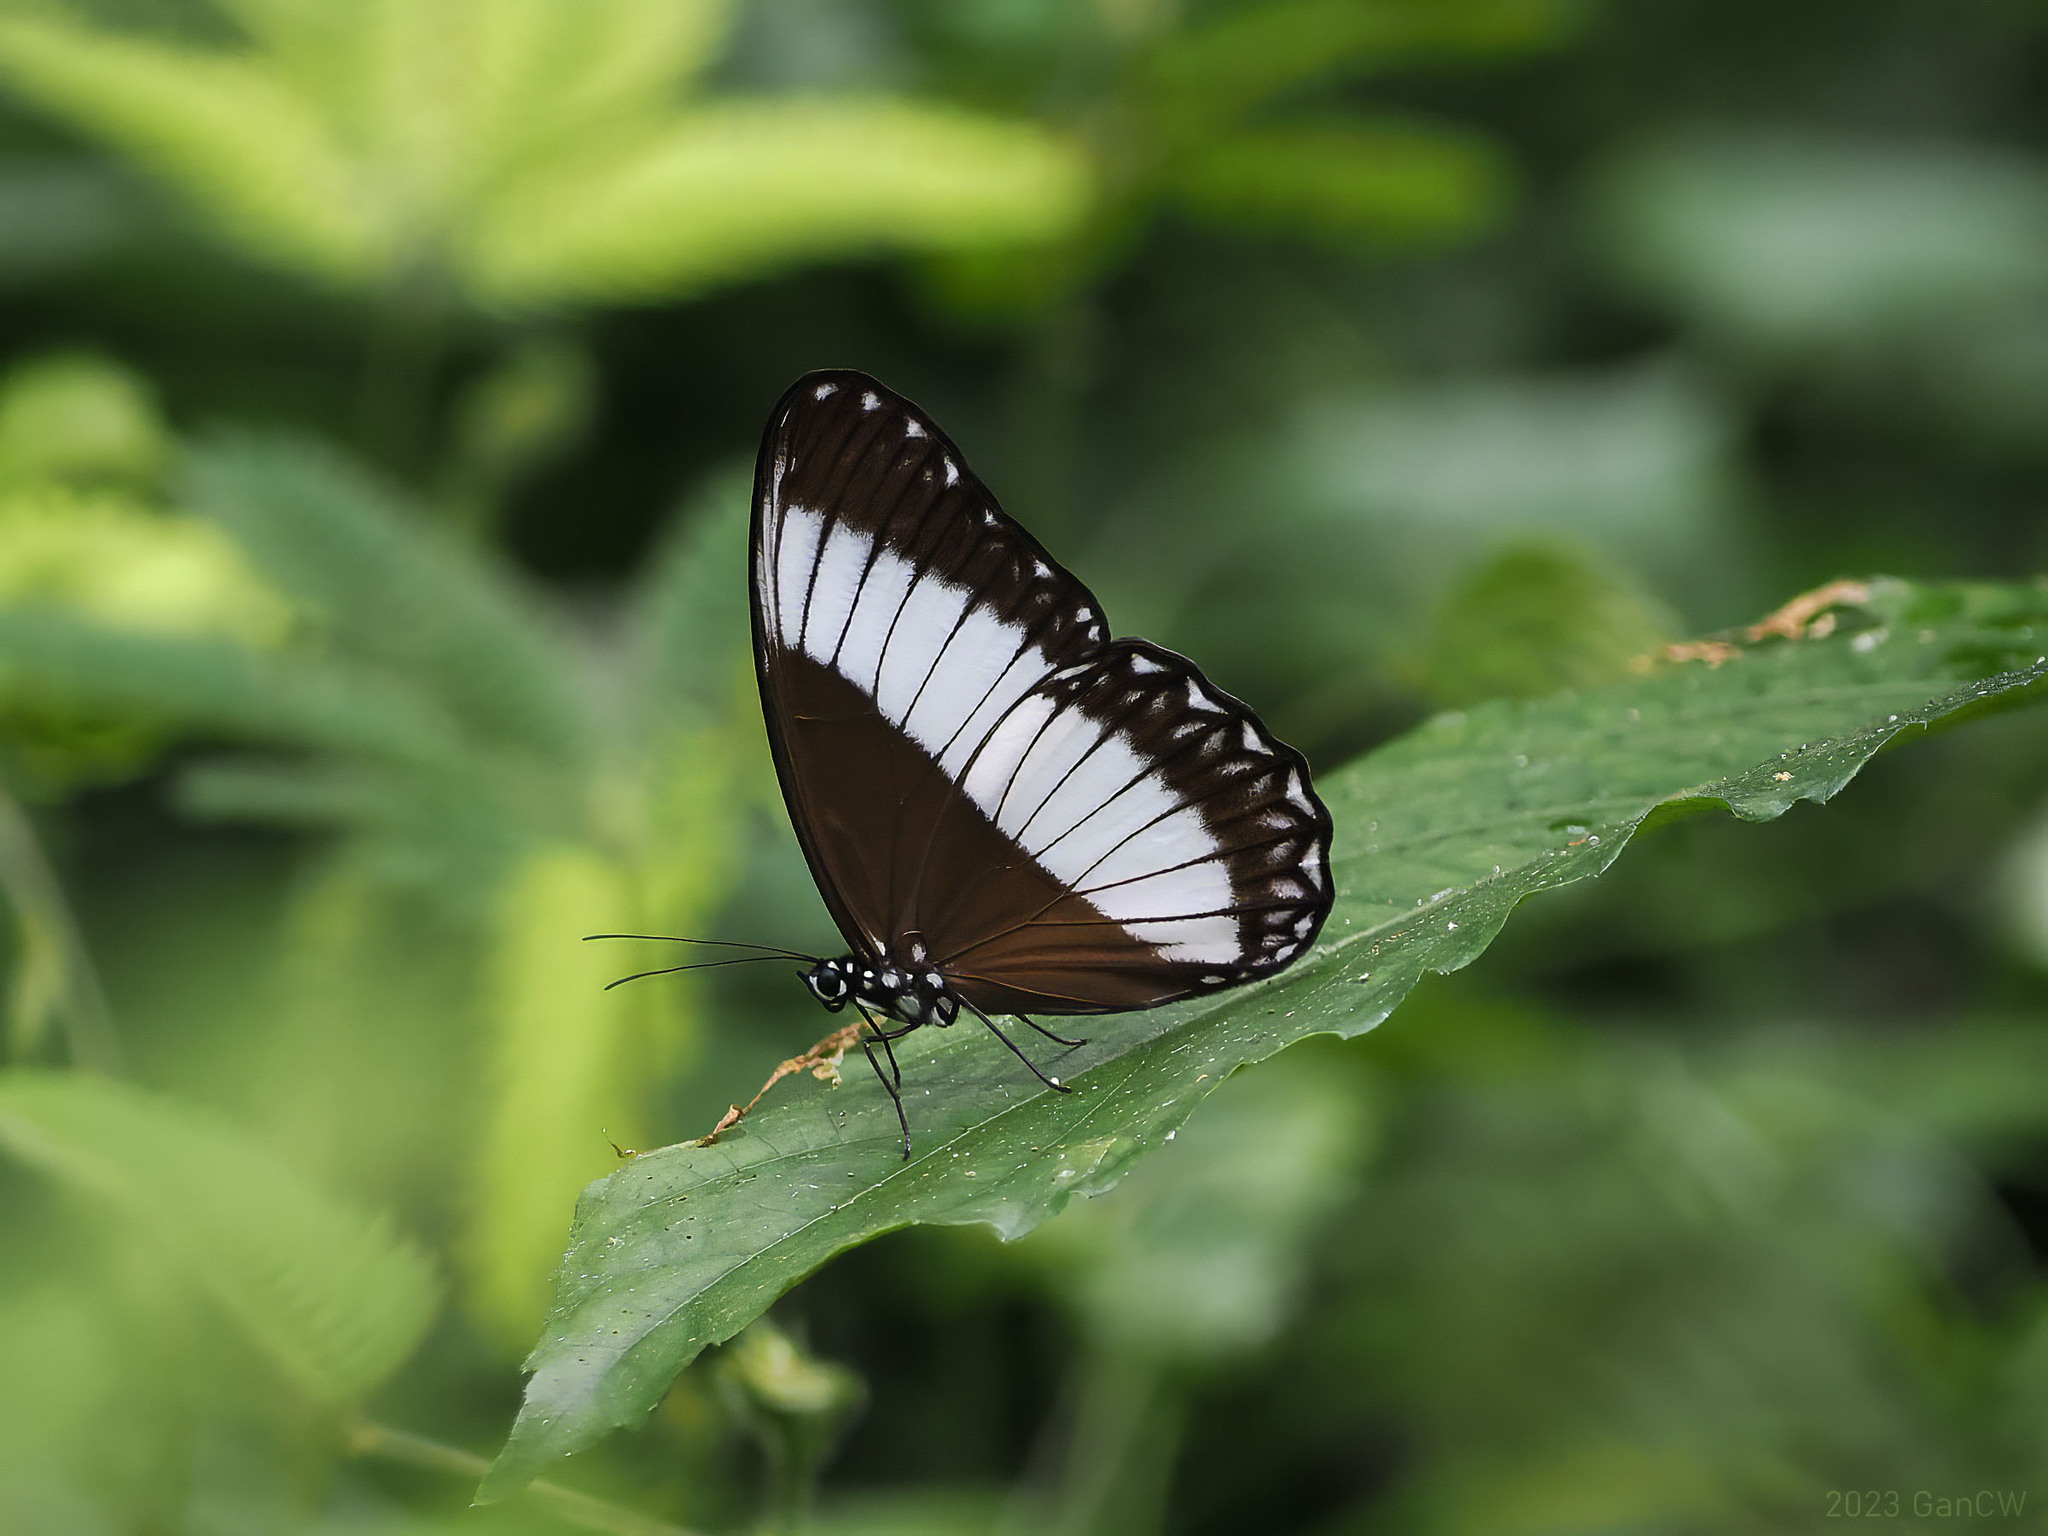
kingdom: Animalia
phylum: Arthropoda
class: Insecta
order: Lepidoptera
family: Nymphalidae
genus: Zethera
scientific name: Zethera pimplea
